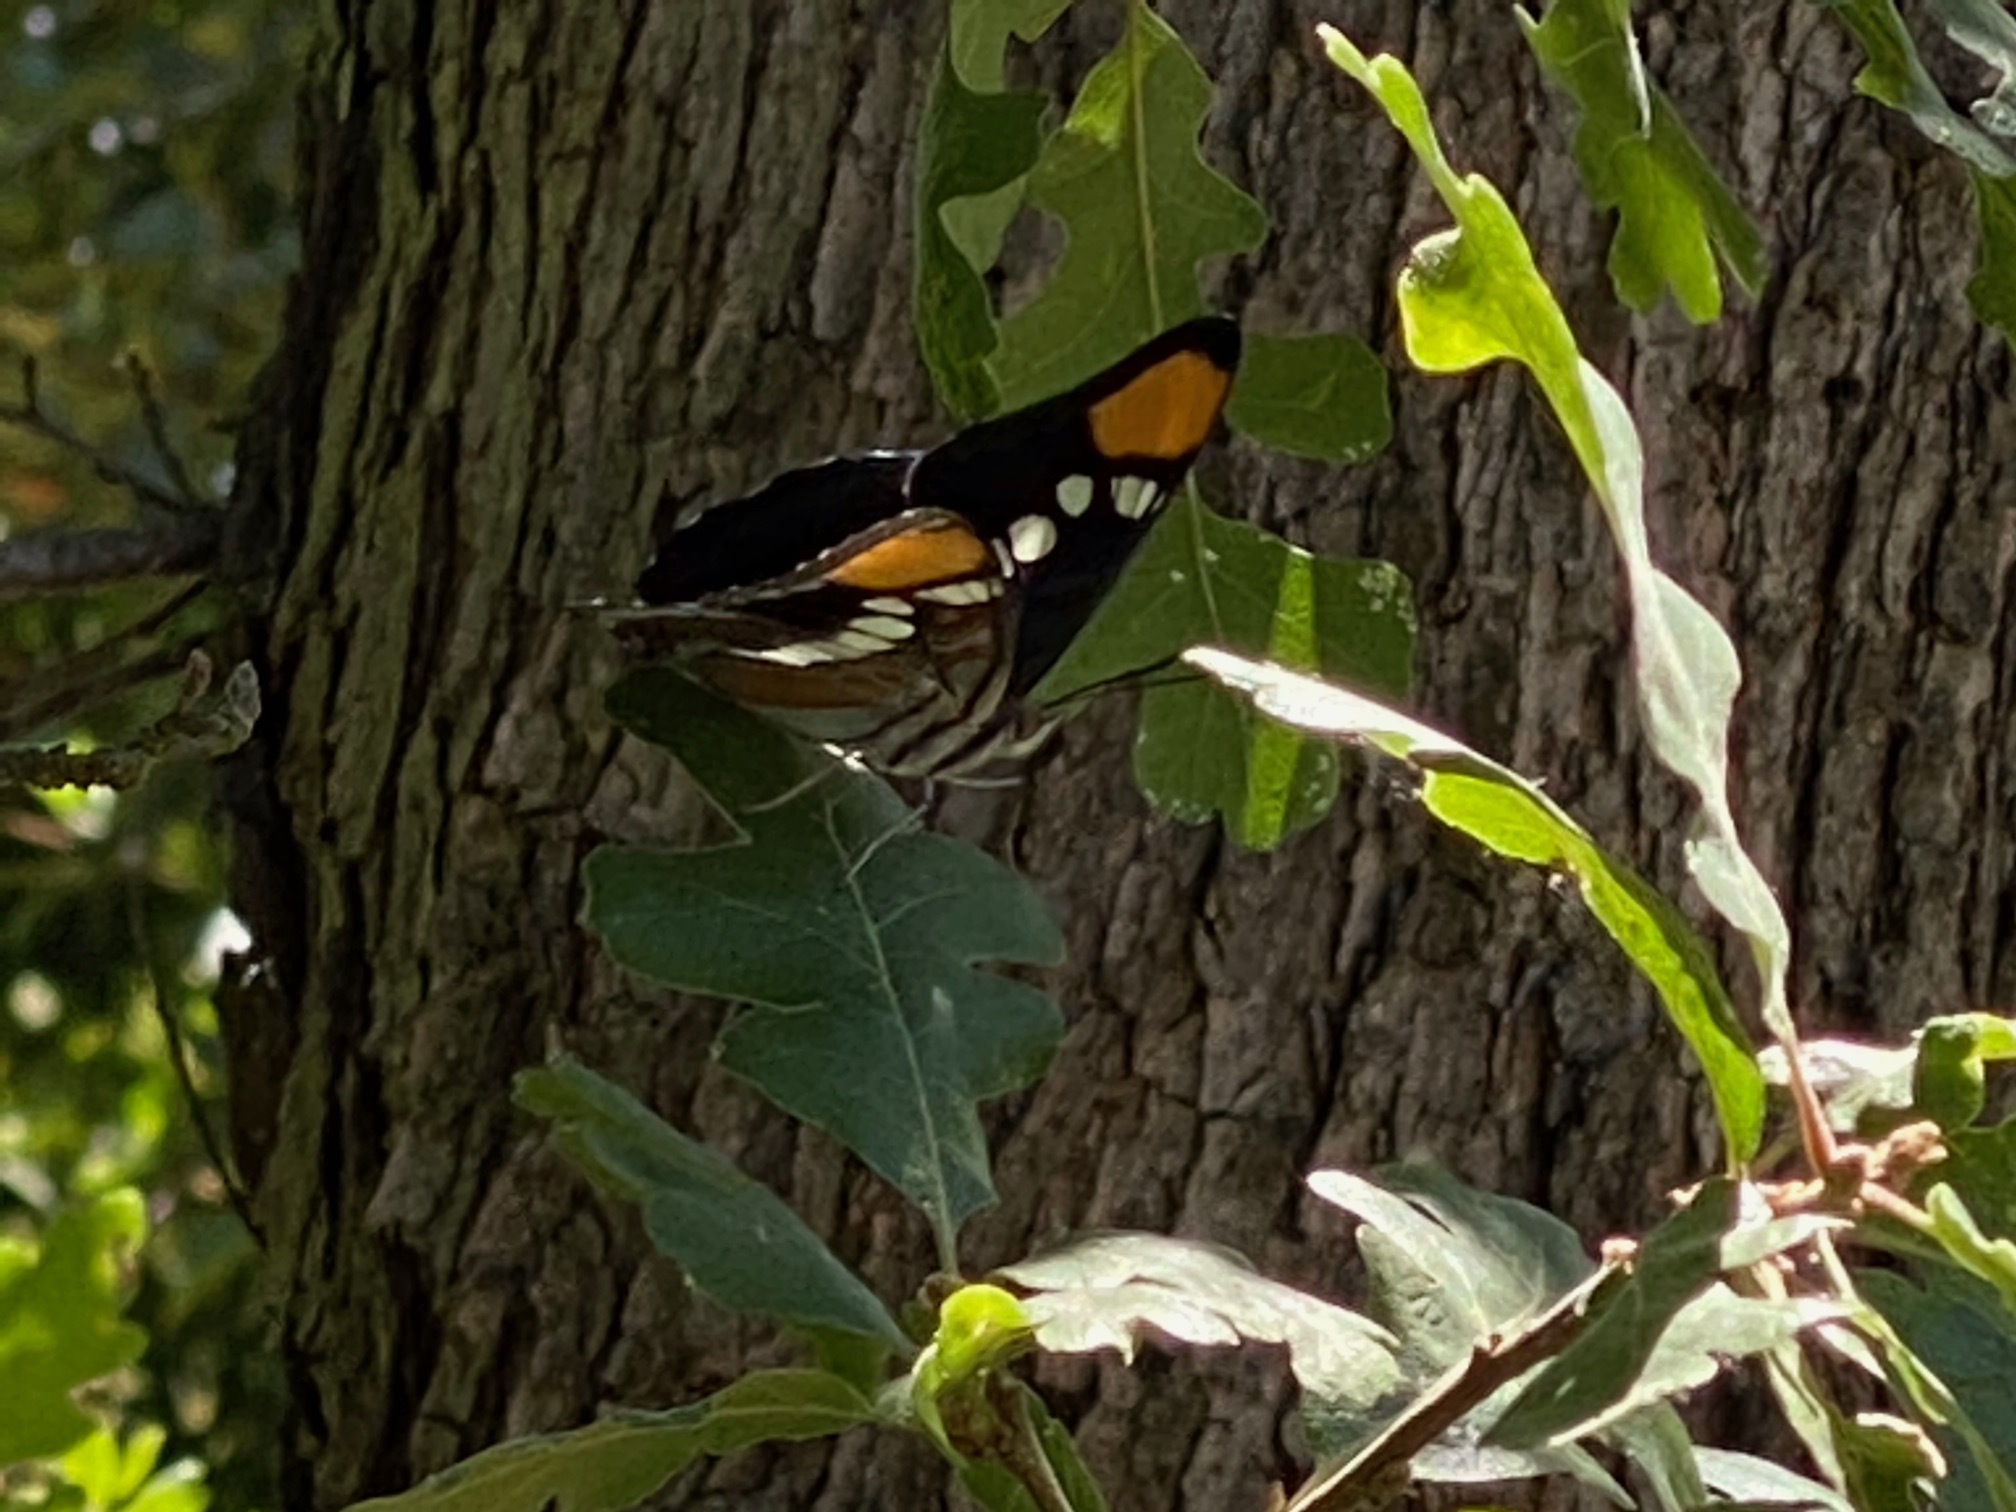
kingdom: Animalia
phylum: Arthropoda
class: Insecta
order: Lepidoptera
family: Nymphalidae
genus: Limenitis
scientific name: Limenitis bredowii
